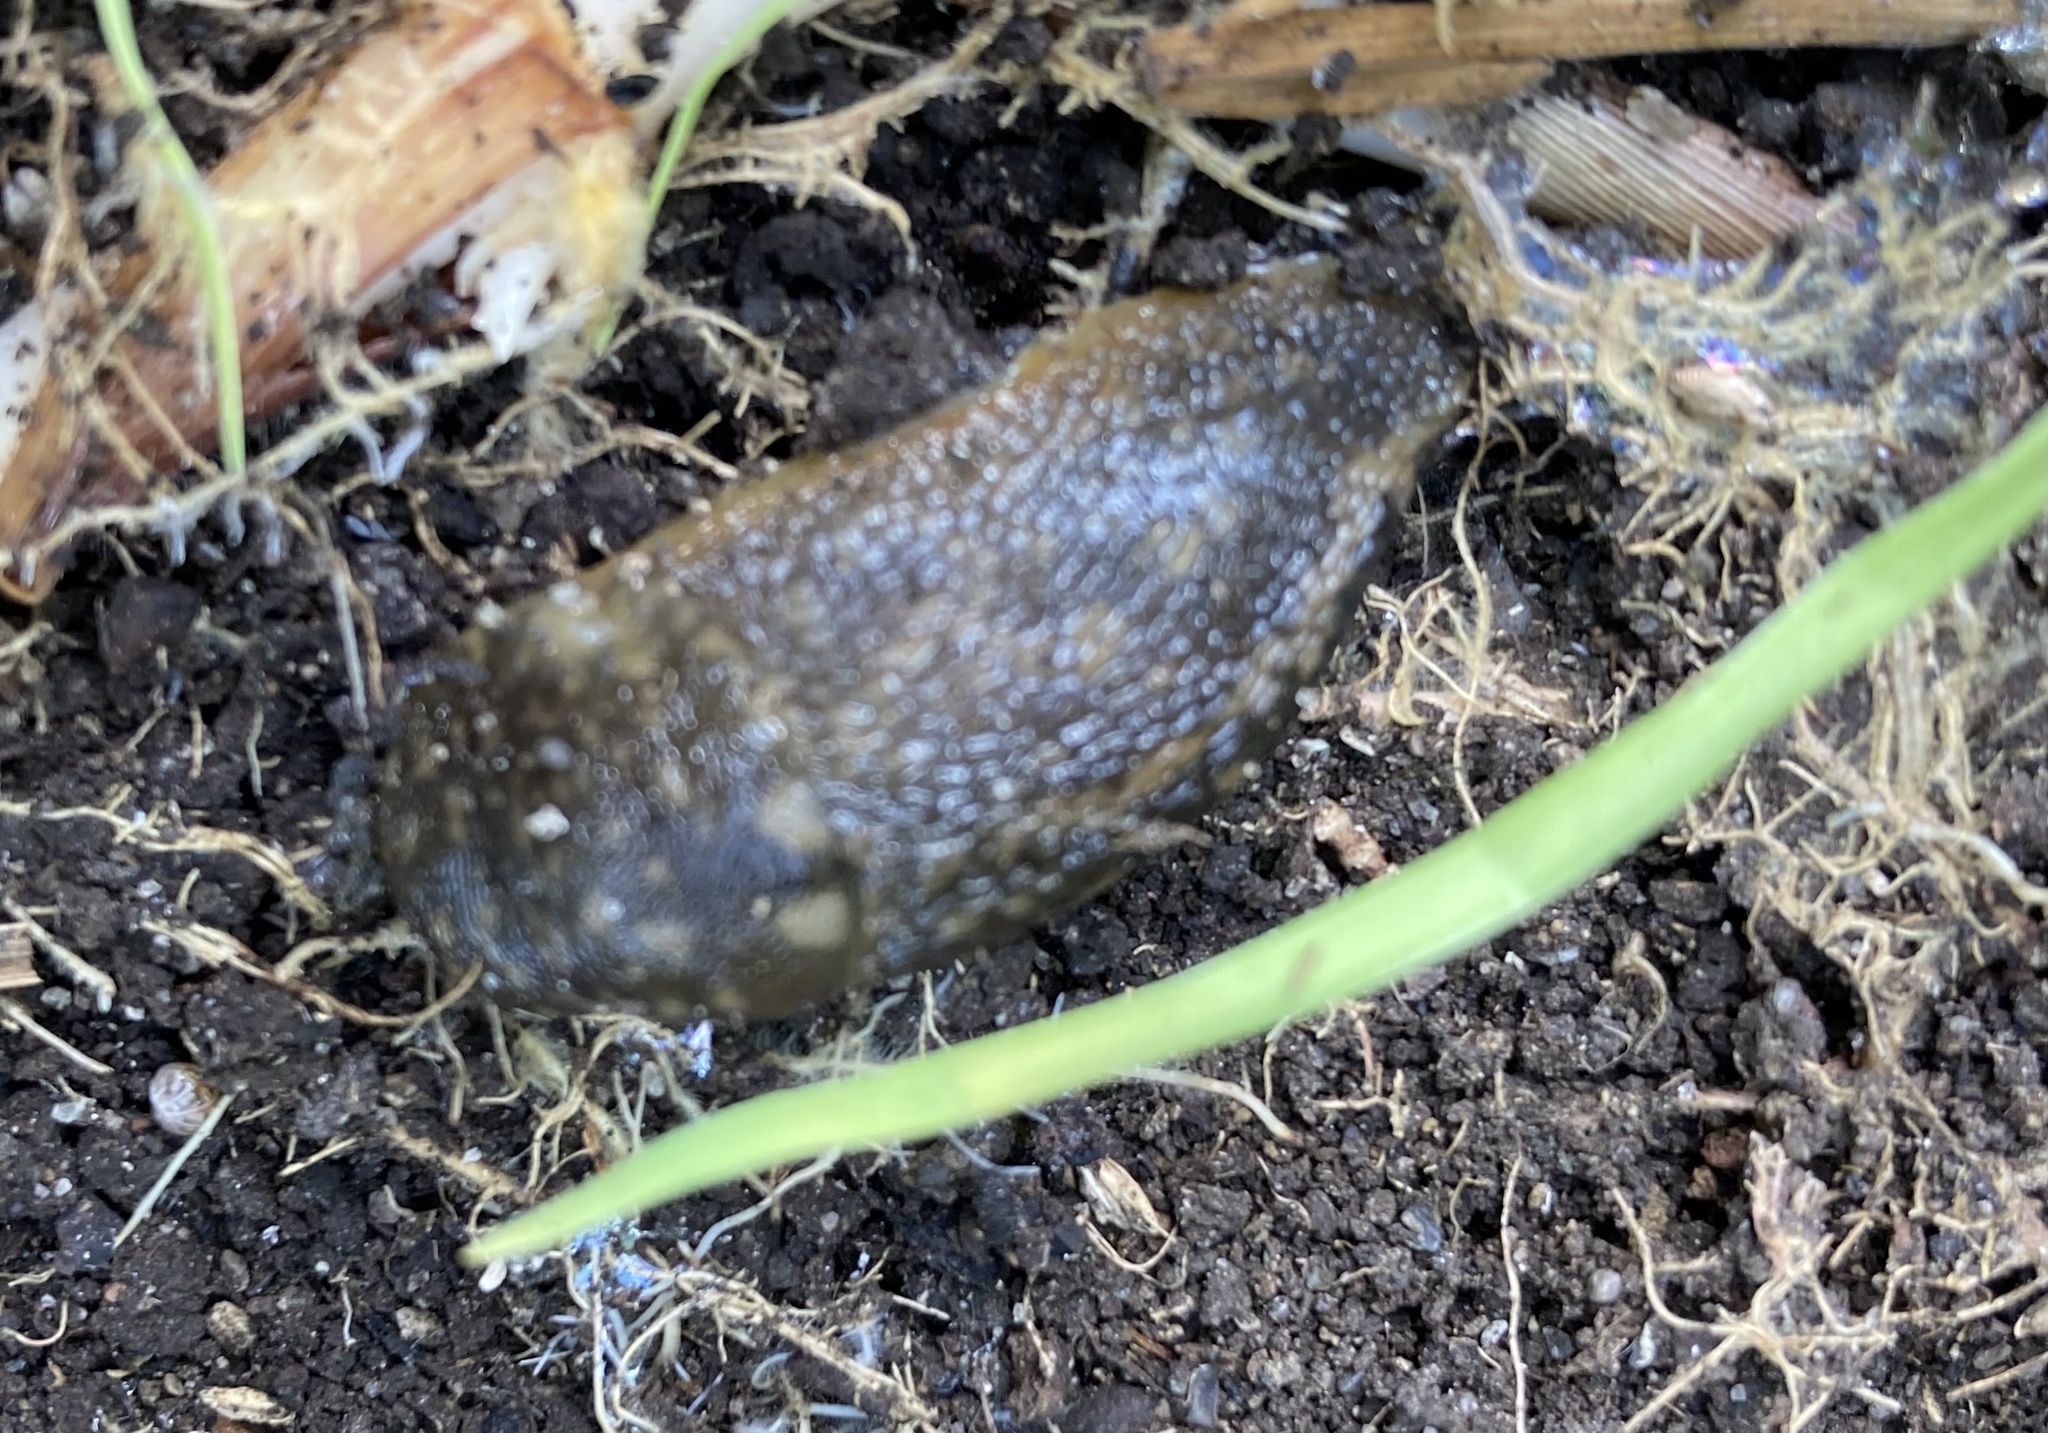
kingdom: Animalia
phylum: Mollusca
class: Gastropoda
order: Stylommatophora
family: Limacidae
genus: Limacus
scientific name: Limacus flavus
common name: Yellow gardenslug
